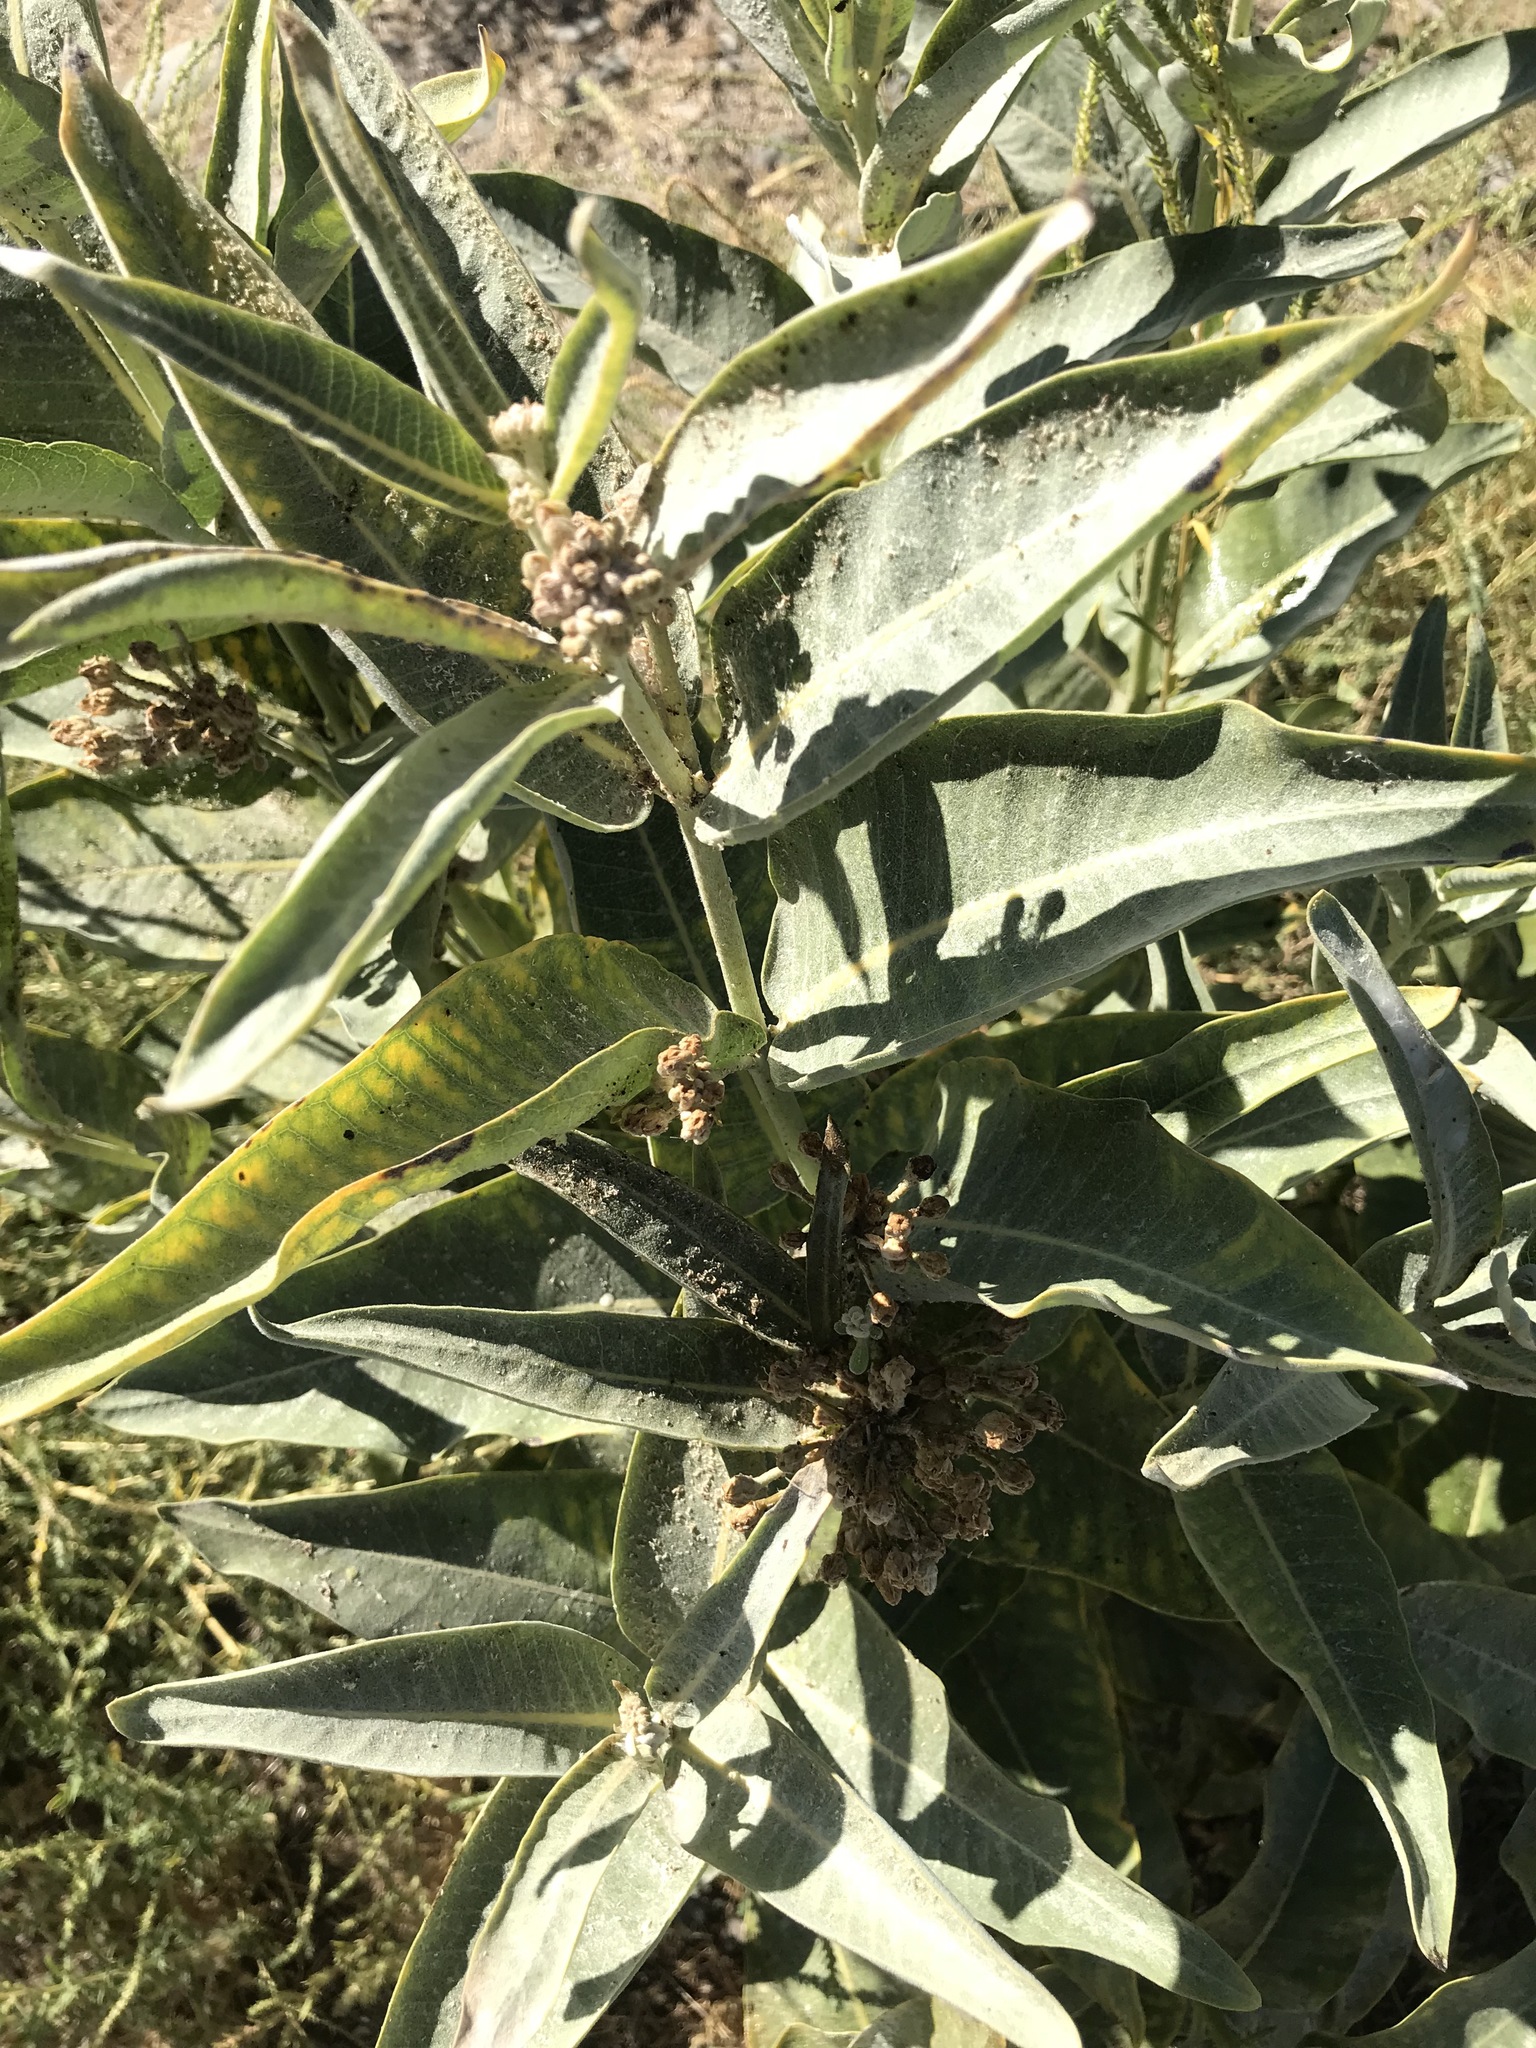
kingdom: Plantae
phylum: Tracheophyta
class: Magnoliopsida
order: Gentianales
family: Apocynaceae
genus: Asclepias
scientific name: Asclepias speciosa
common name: Showy milkweed
